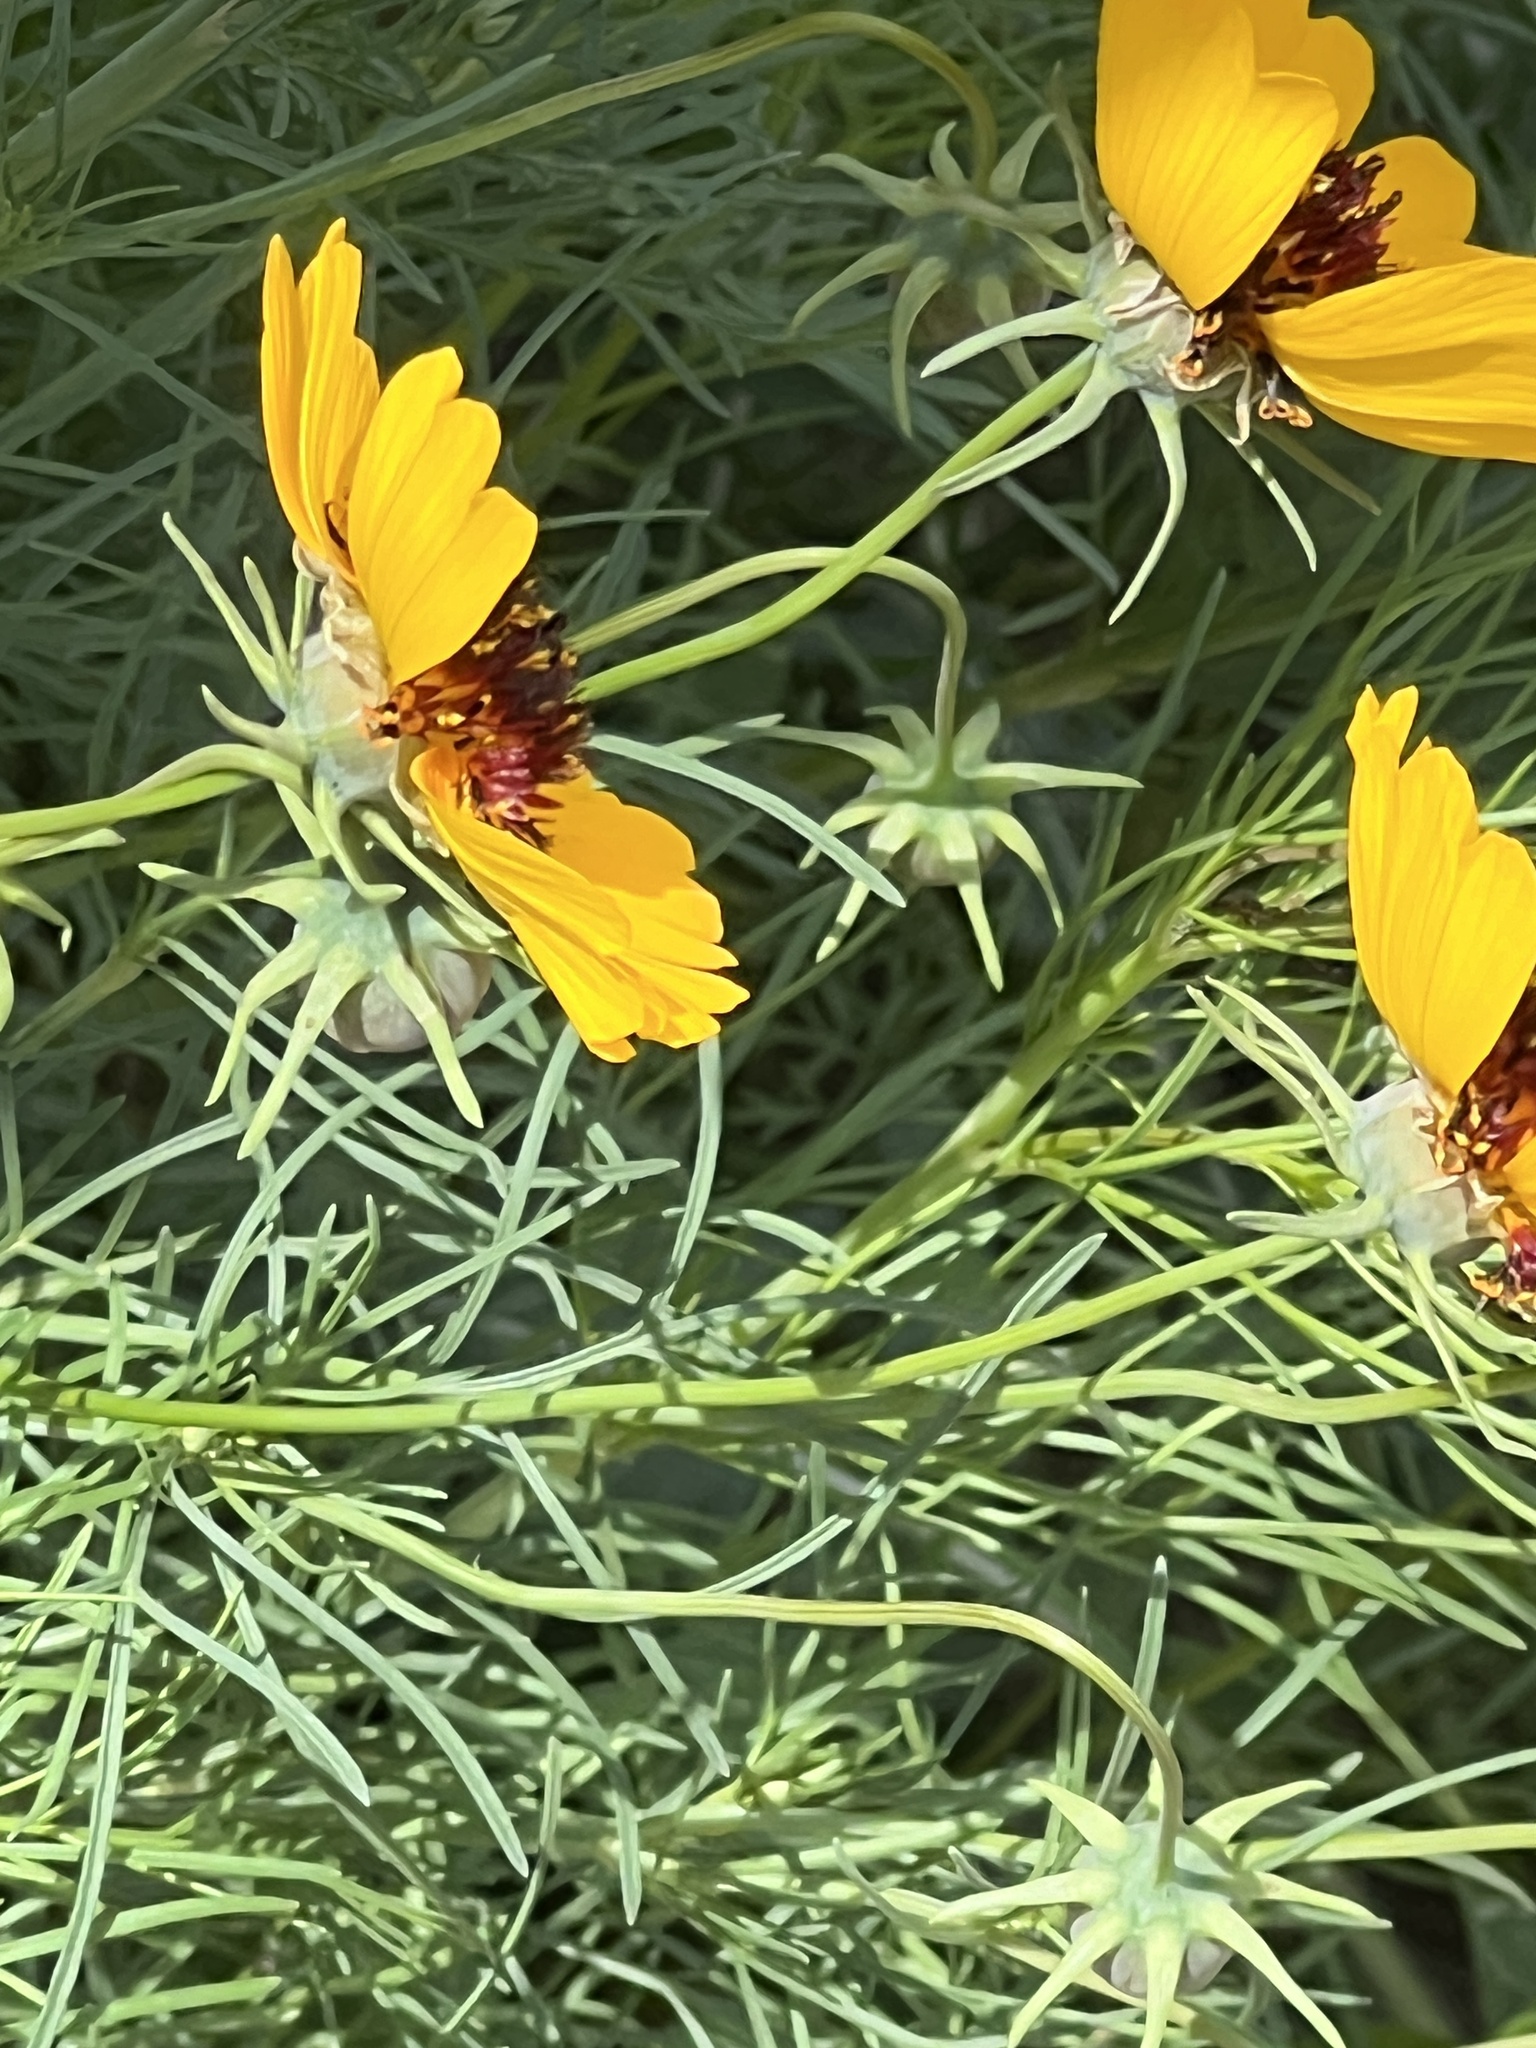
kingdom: Plantae
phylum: Tracheophyta
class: Magnoliopsida
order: Asterales
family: Asteraceae
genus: Thelesperma
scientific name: Thelesperma filifolium
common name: Stiff greenthread
